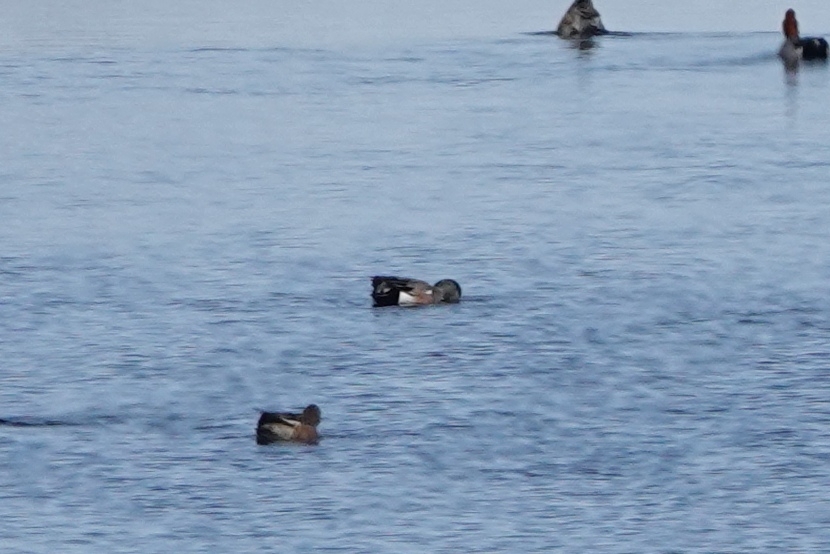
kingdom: Animalia
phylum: Chordata
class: Aves
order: Anseriformes
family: Anatidae
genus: Mareca
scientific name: Mareca americana
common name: American wigeon
